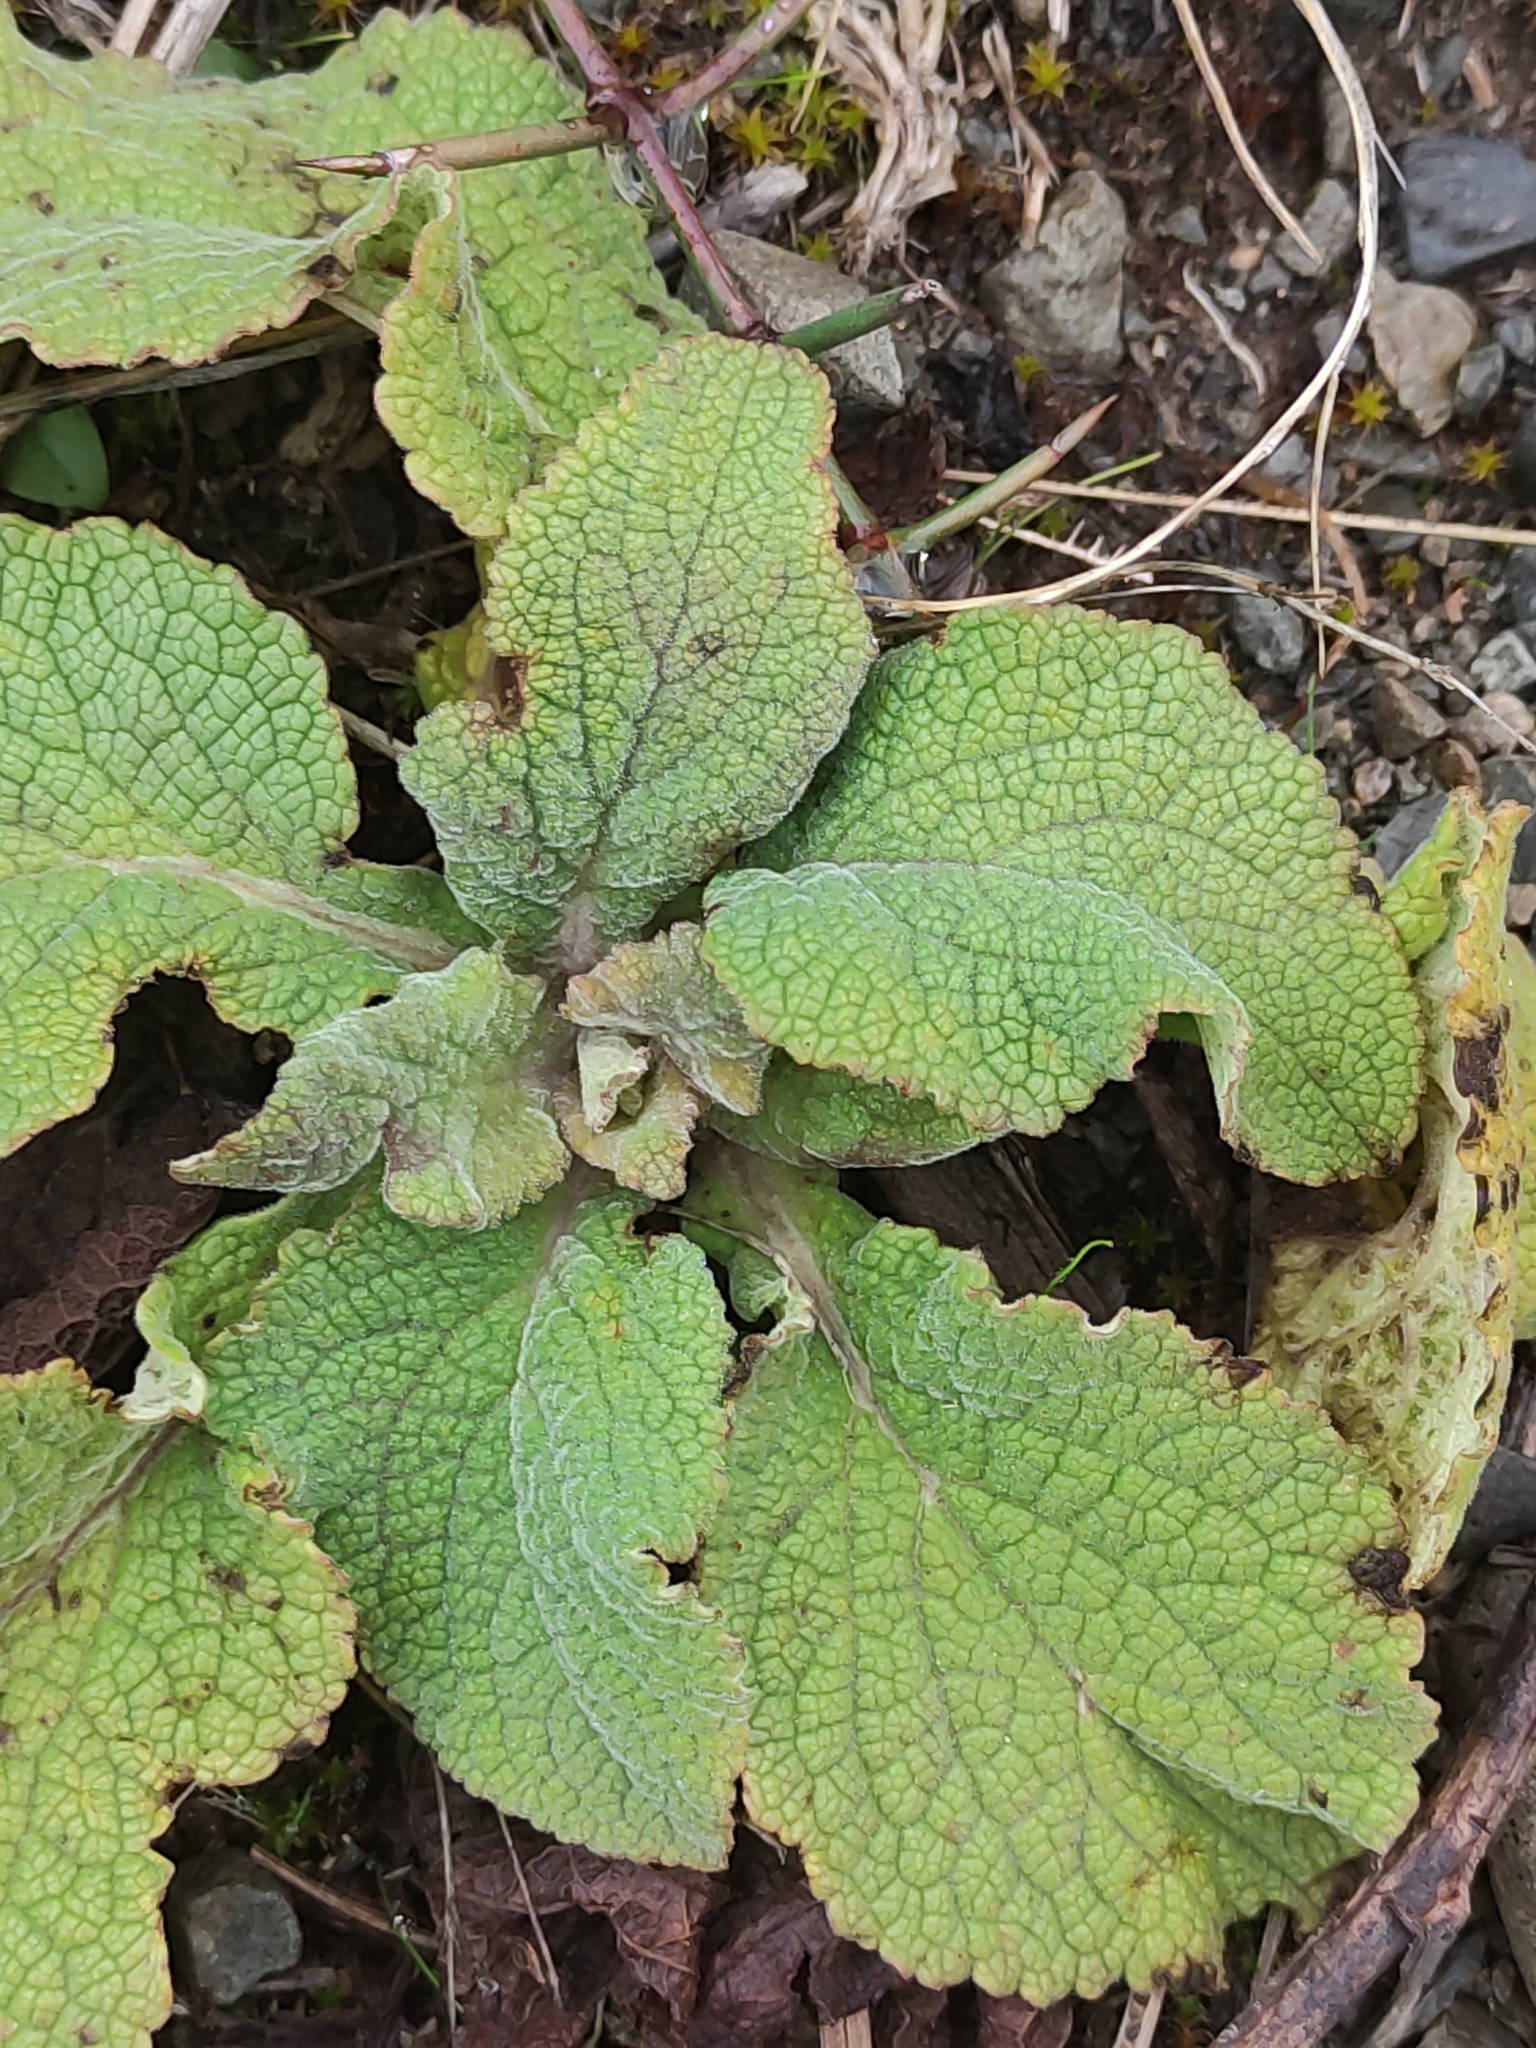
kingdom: Plantae
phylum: Tracheophyta
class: Magnoliopsida
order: Lamiales
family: Plantaginaceae
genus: Digitalis
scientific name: Digitalis purpurea
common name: Foxglove
